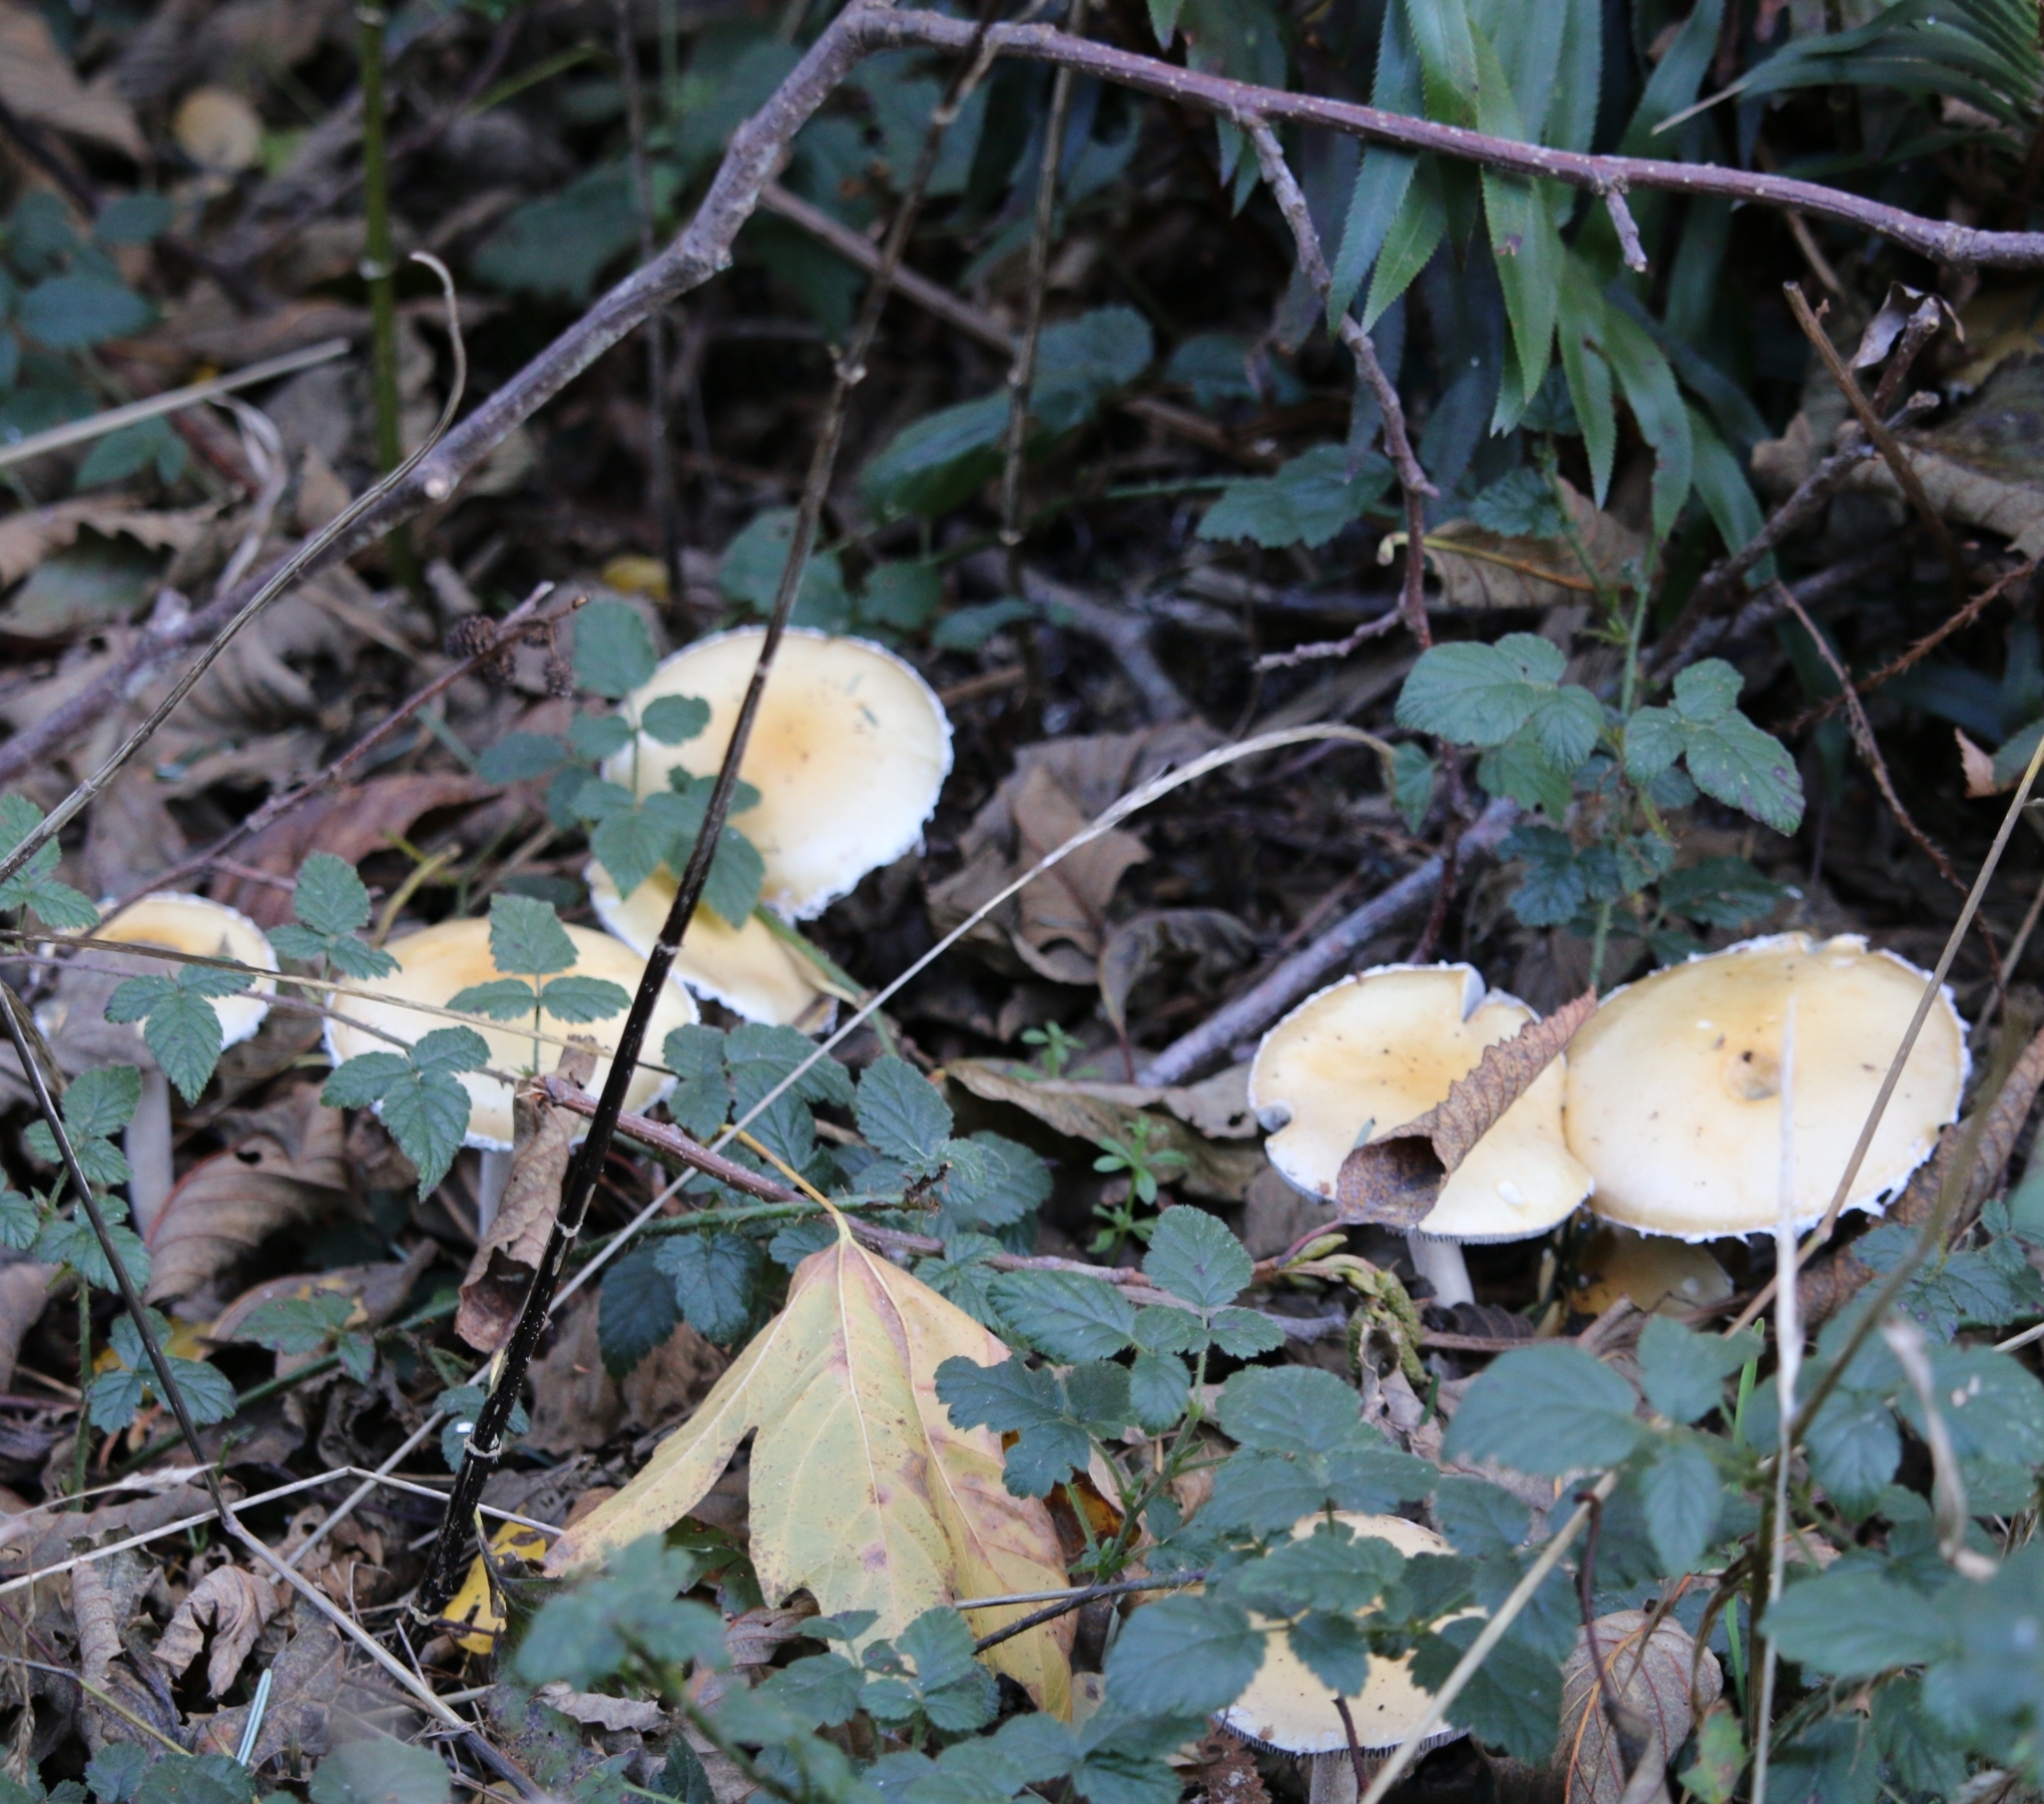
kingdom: Fungi
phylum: Basidiomycota
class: Agaricomycetes
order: Agaricales
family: Strophariaceae
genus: Stropharia
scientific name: Stropharia ambigua
